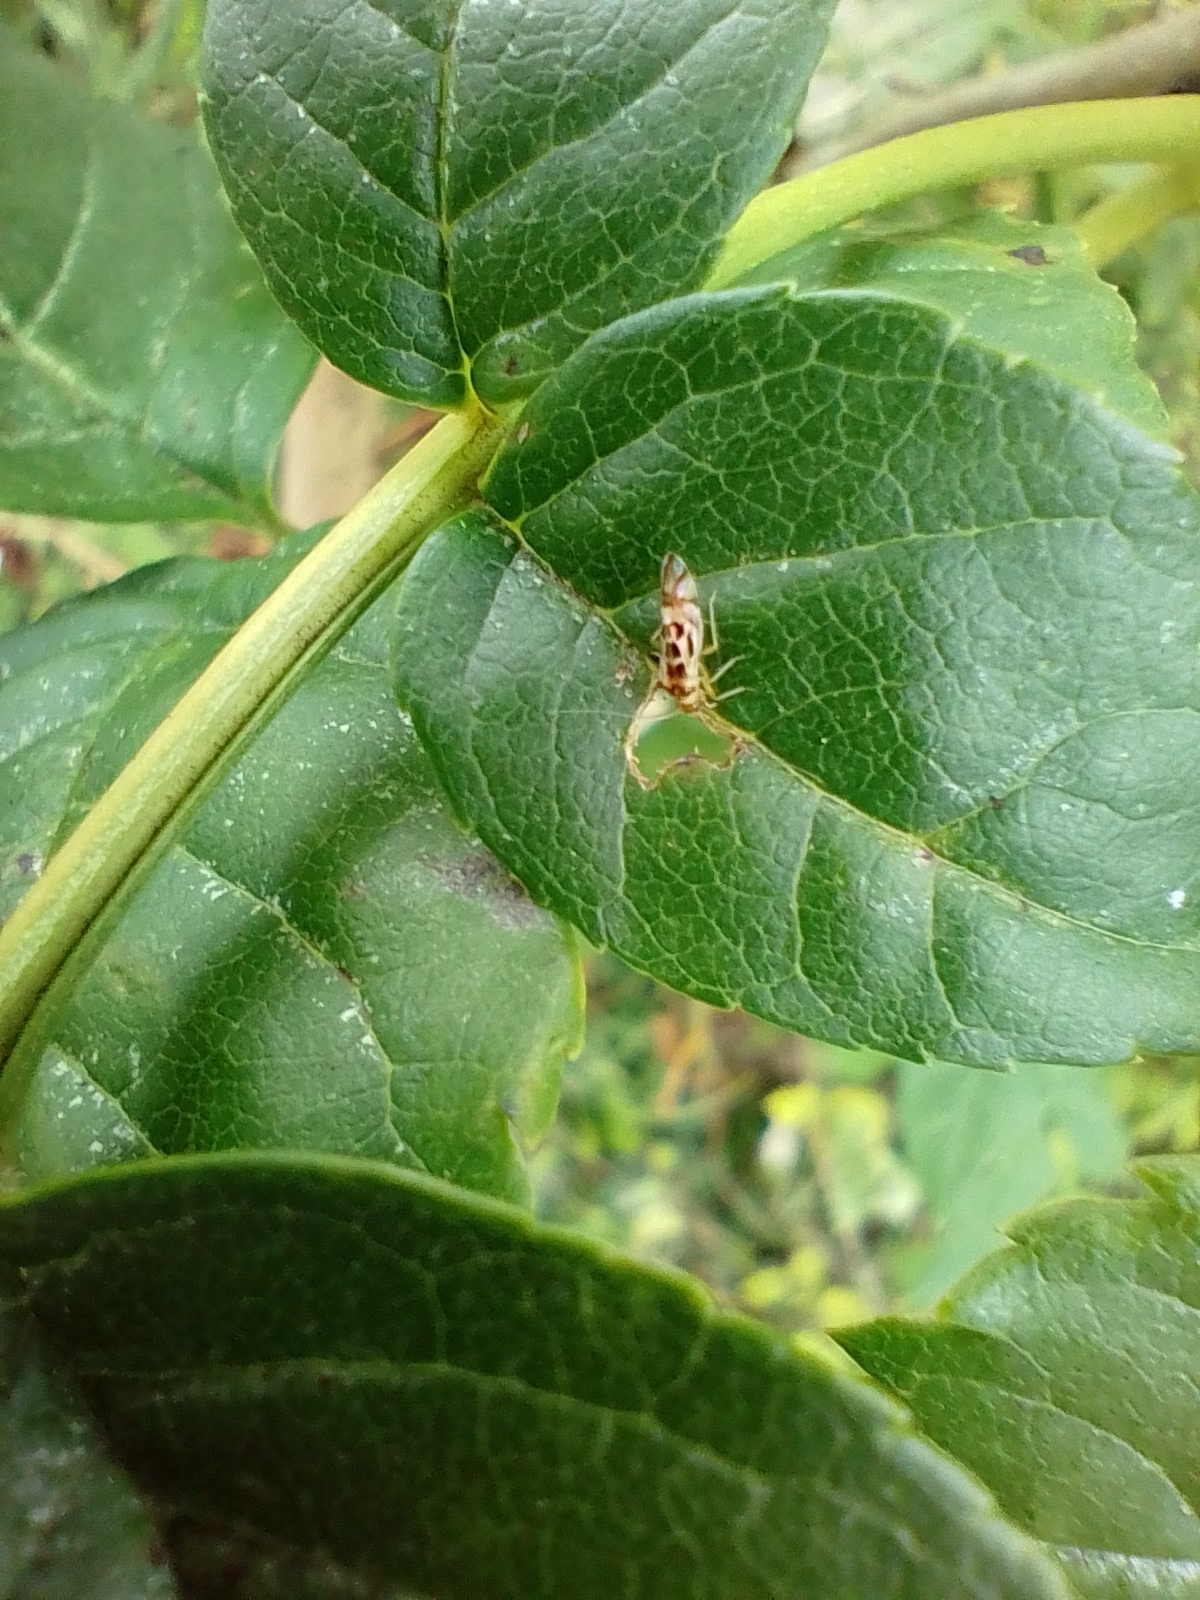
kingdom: Animalia
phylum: Arthropoda
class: Insecta
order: Psocodea
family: Stenopsocidae
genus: Graphopsocus
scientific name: Graphopsocus cruciatus
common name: Lizard bark louse
